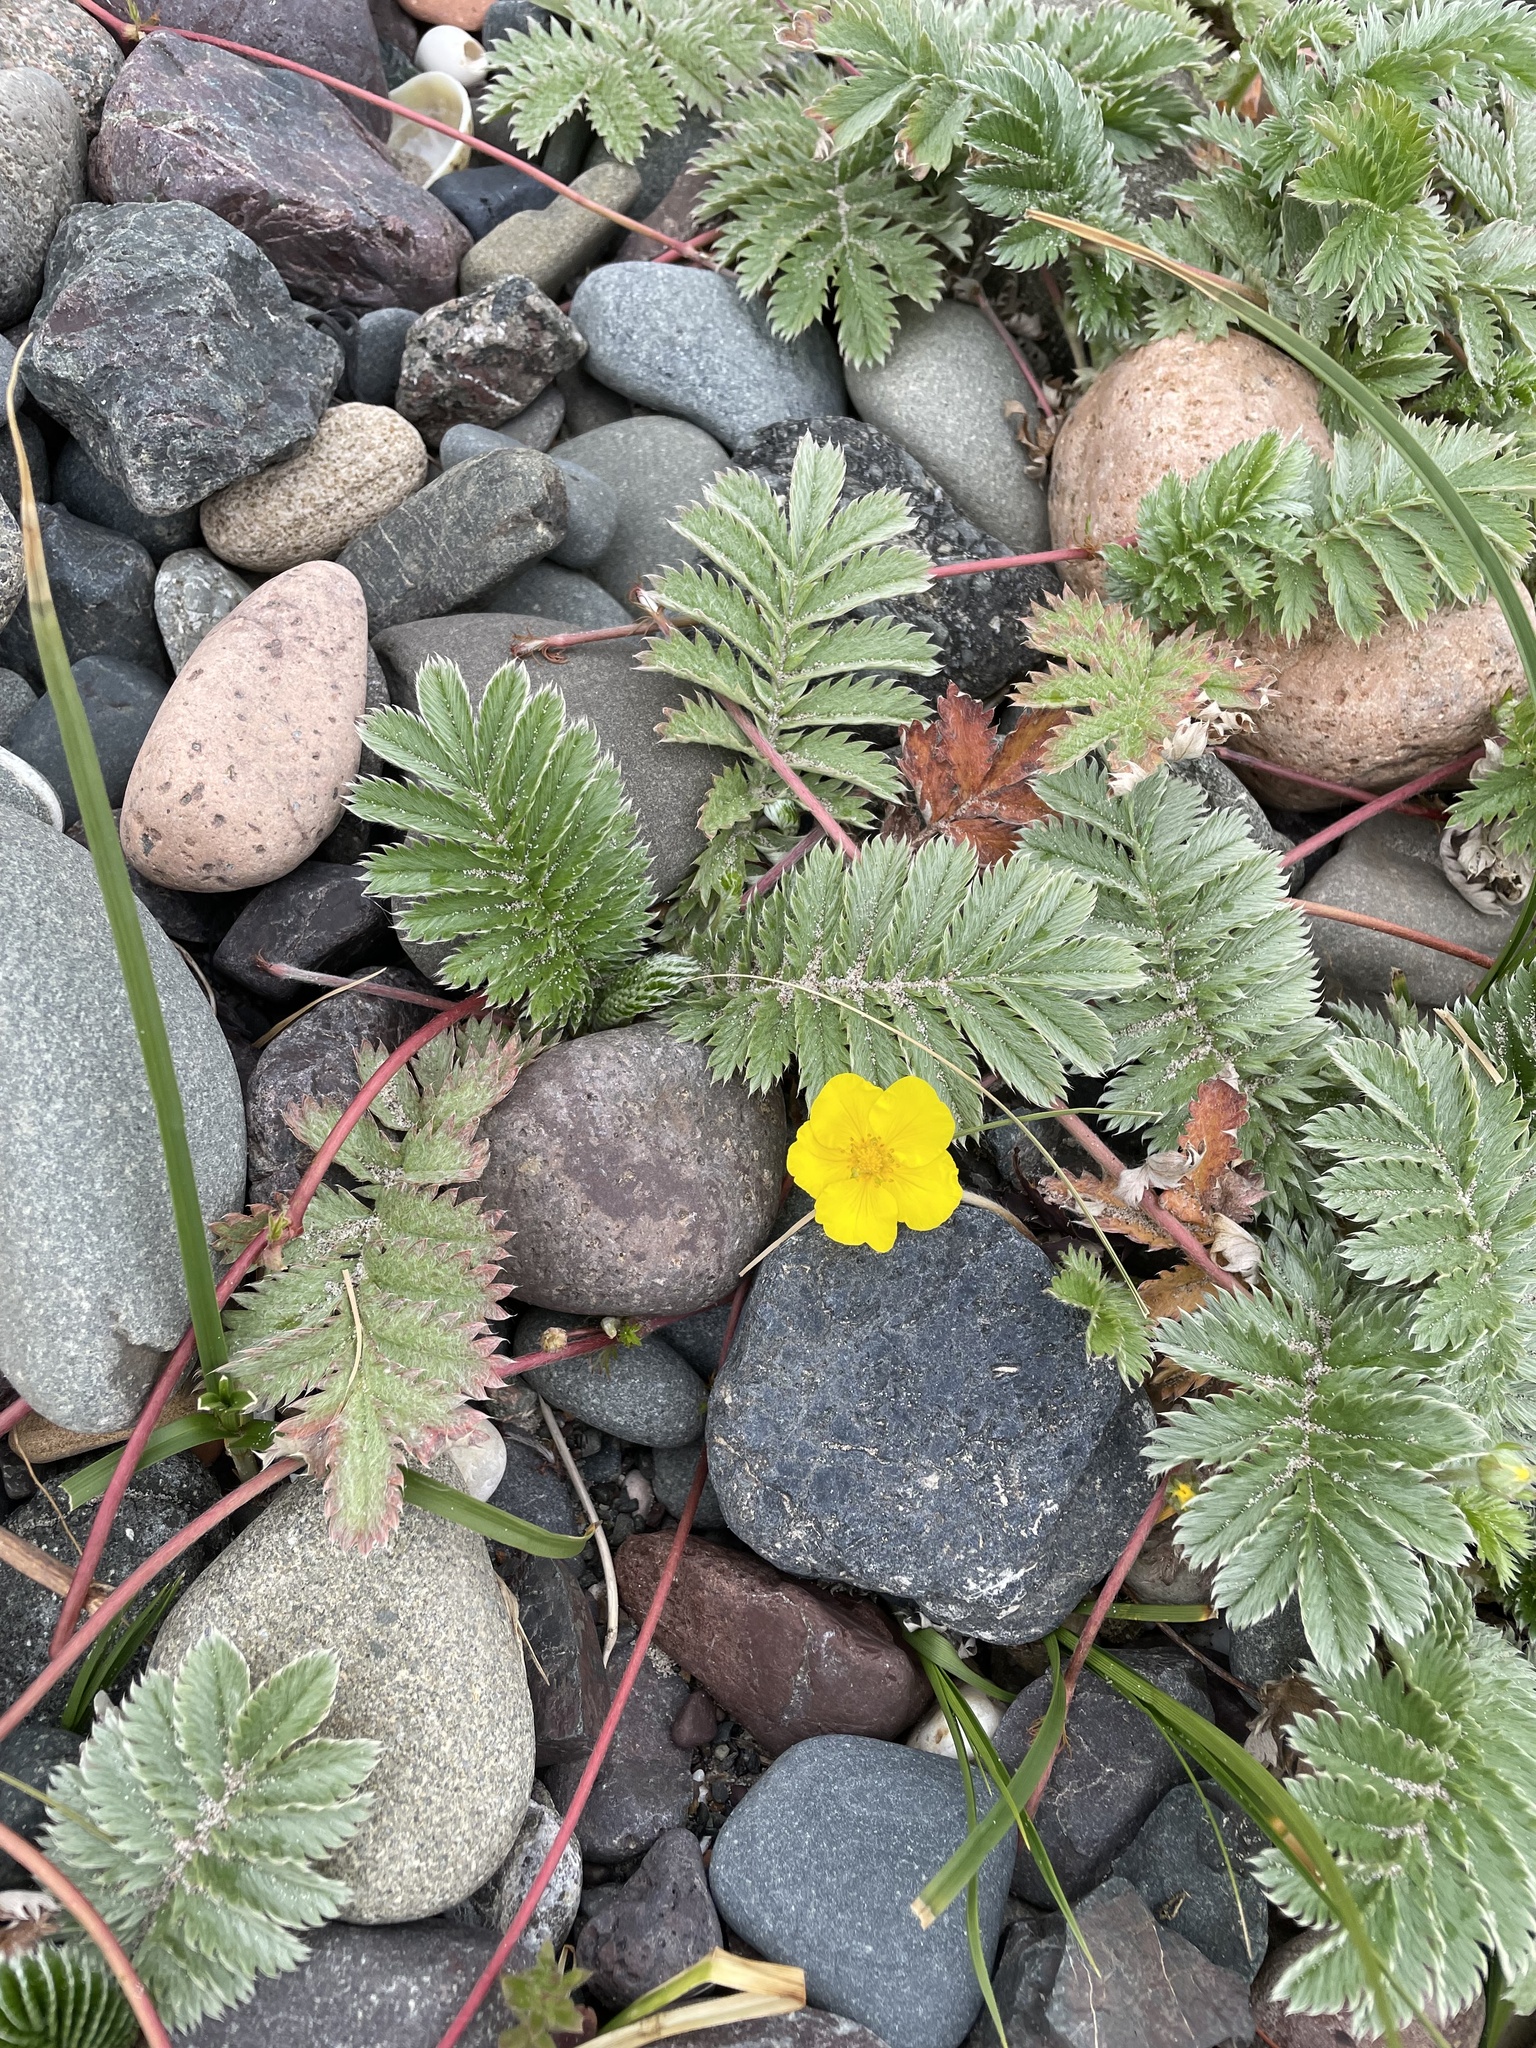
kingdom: Plantae
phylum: Tracheophyta
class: Magnoliopsida
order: Rosales
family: Rosaceae
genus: Argentina
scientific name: Argentina anserina
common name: Common silverweed
